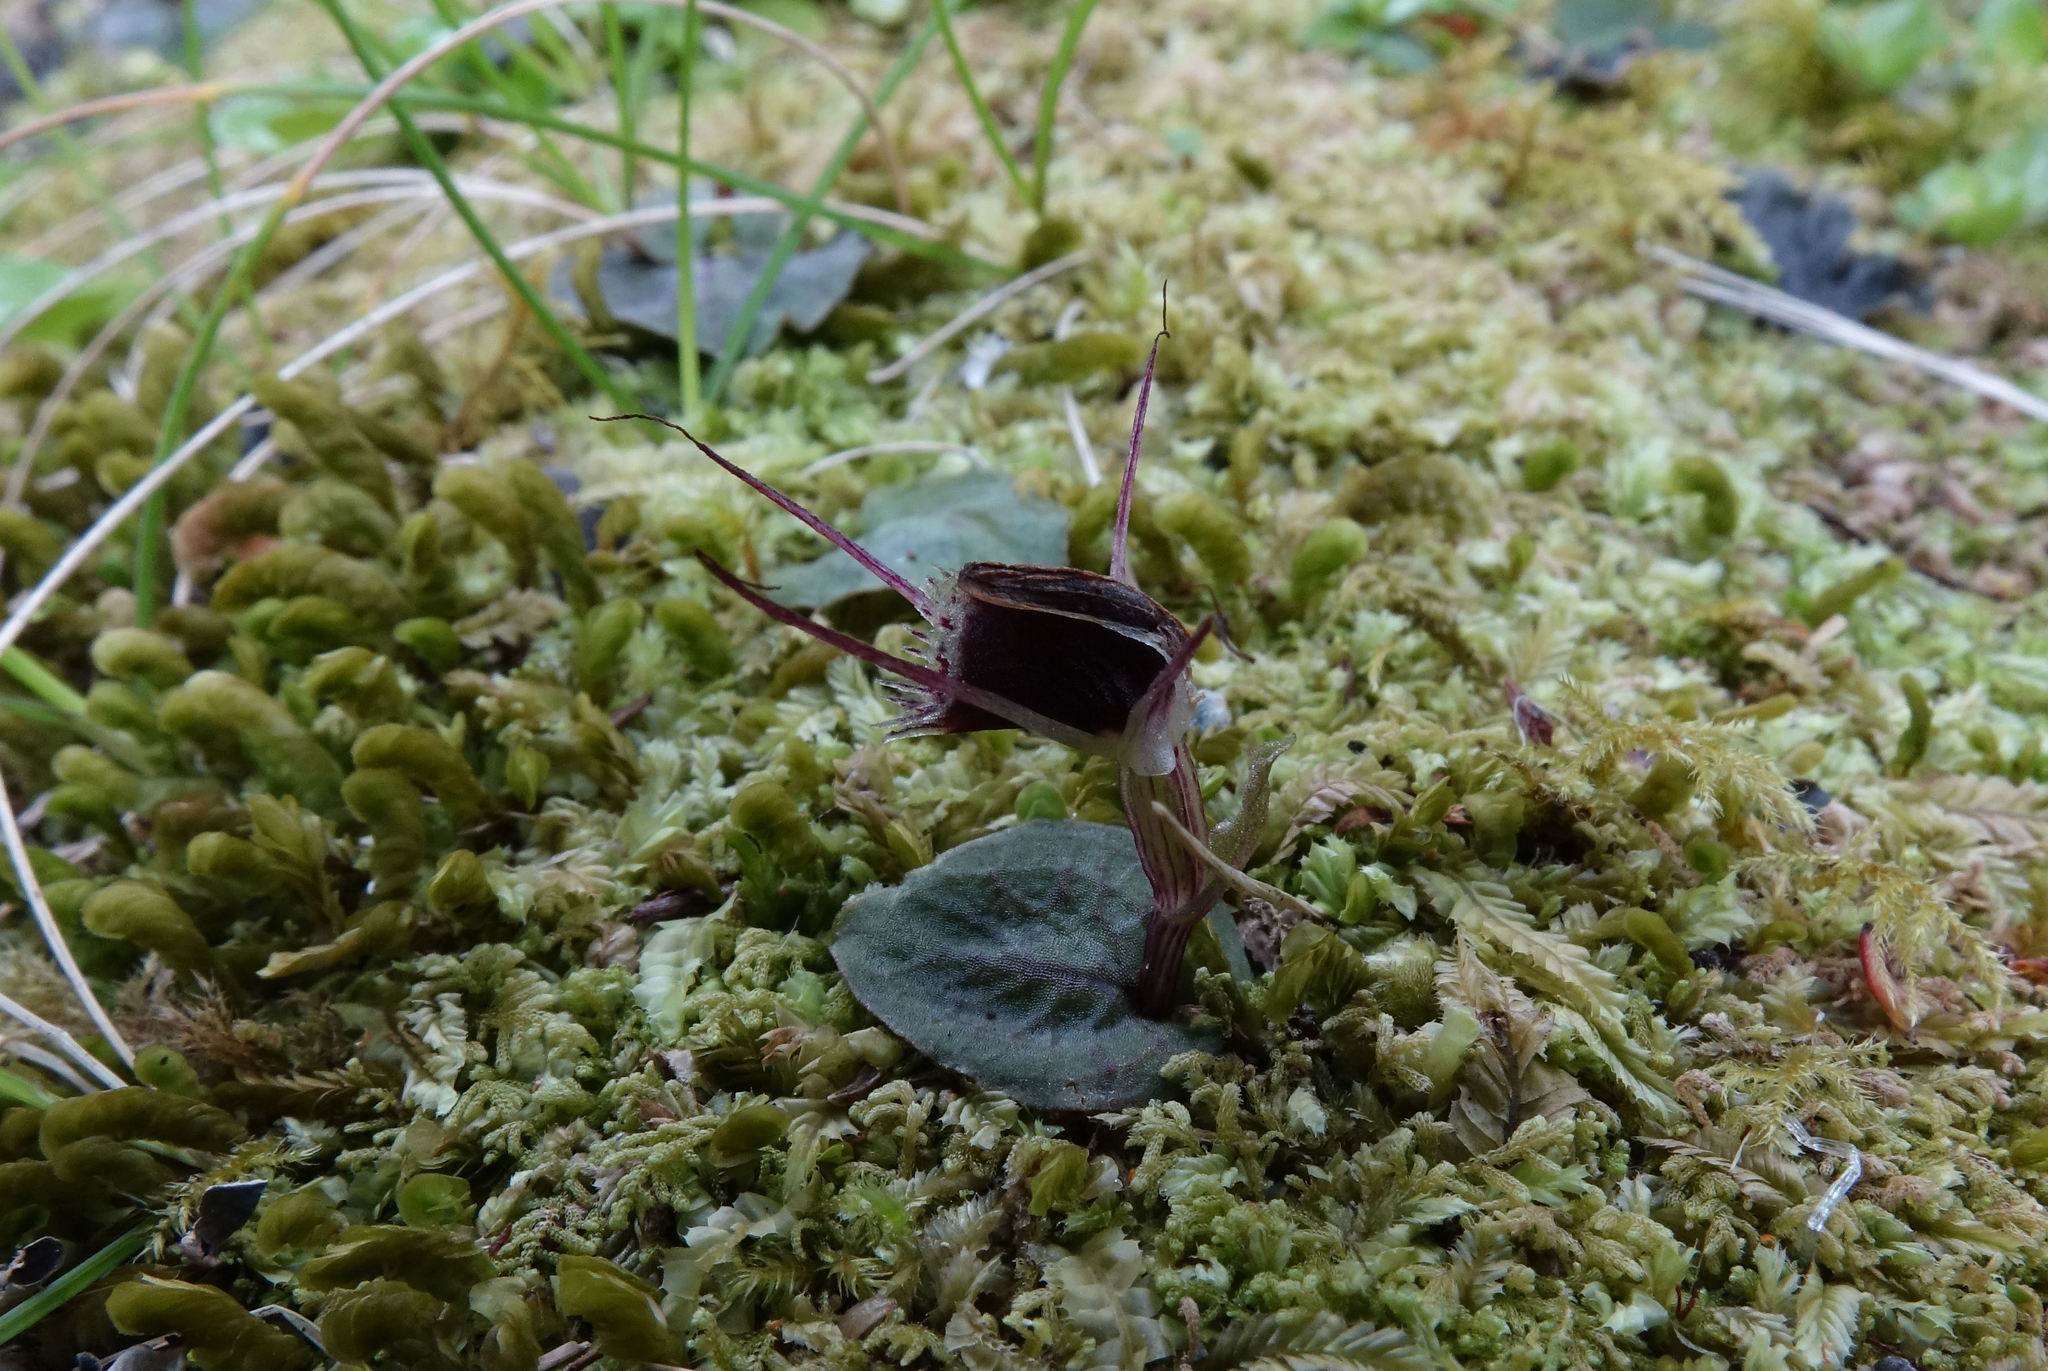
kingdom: Plantae
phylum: Tracheophyta
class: Liliopsida
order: Asparagales
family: Orchidaceae
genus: Corybas
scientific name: Corybas oblongus
